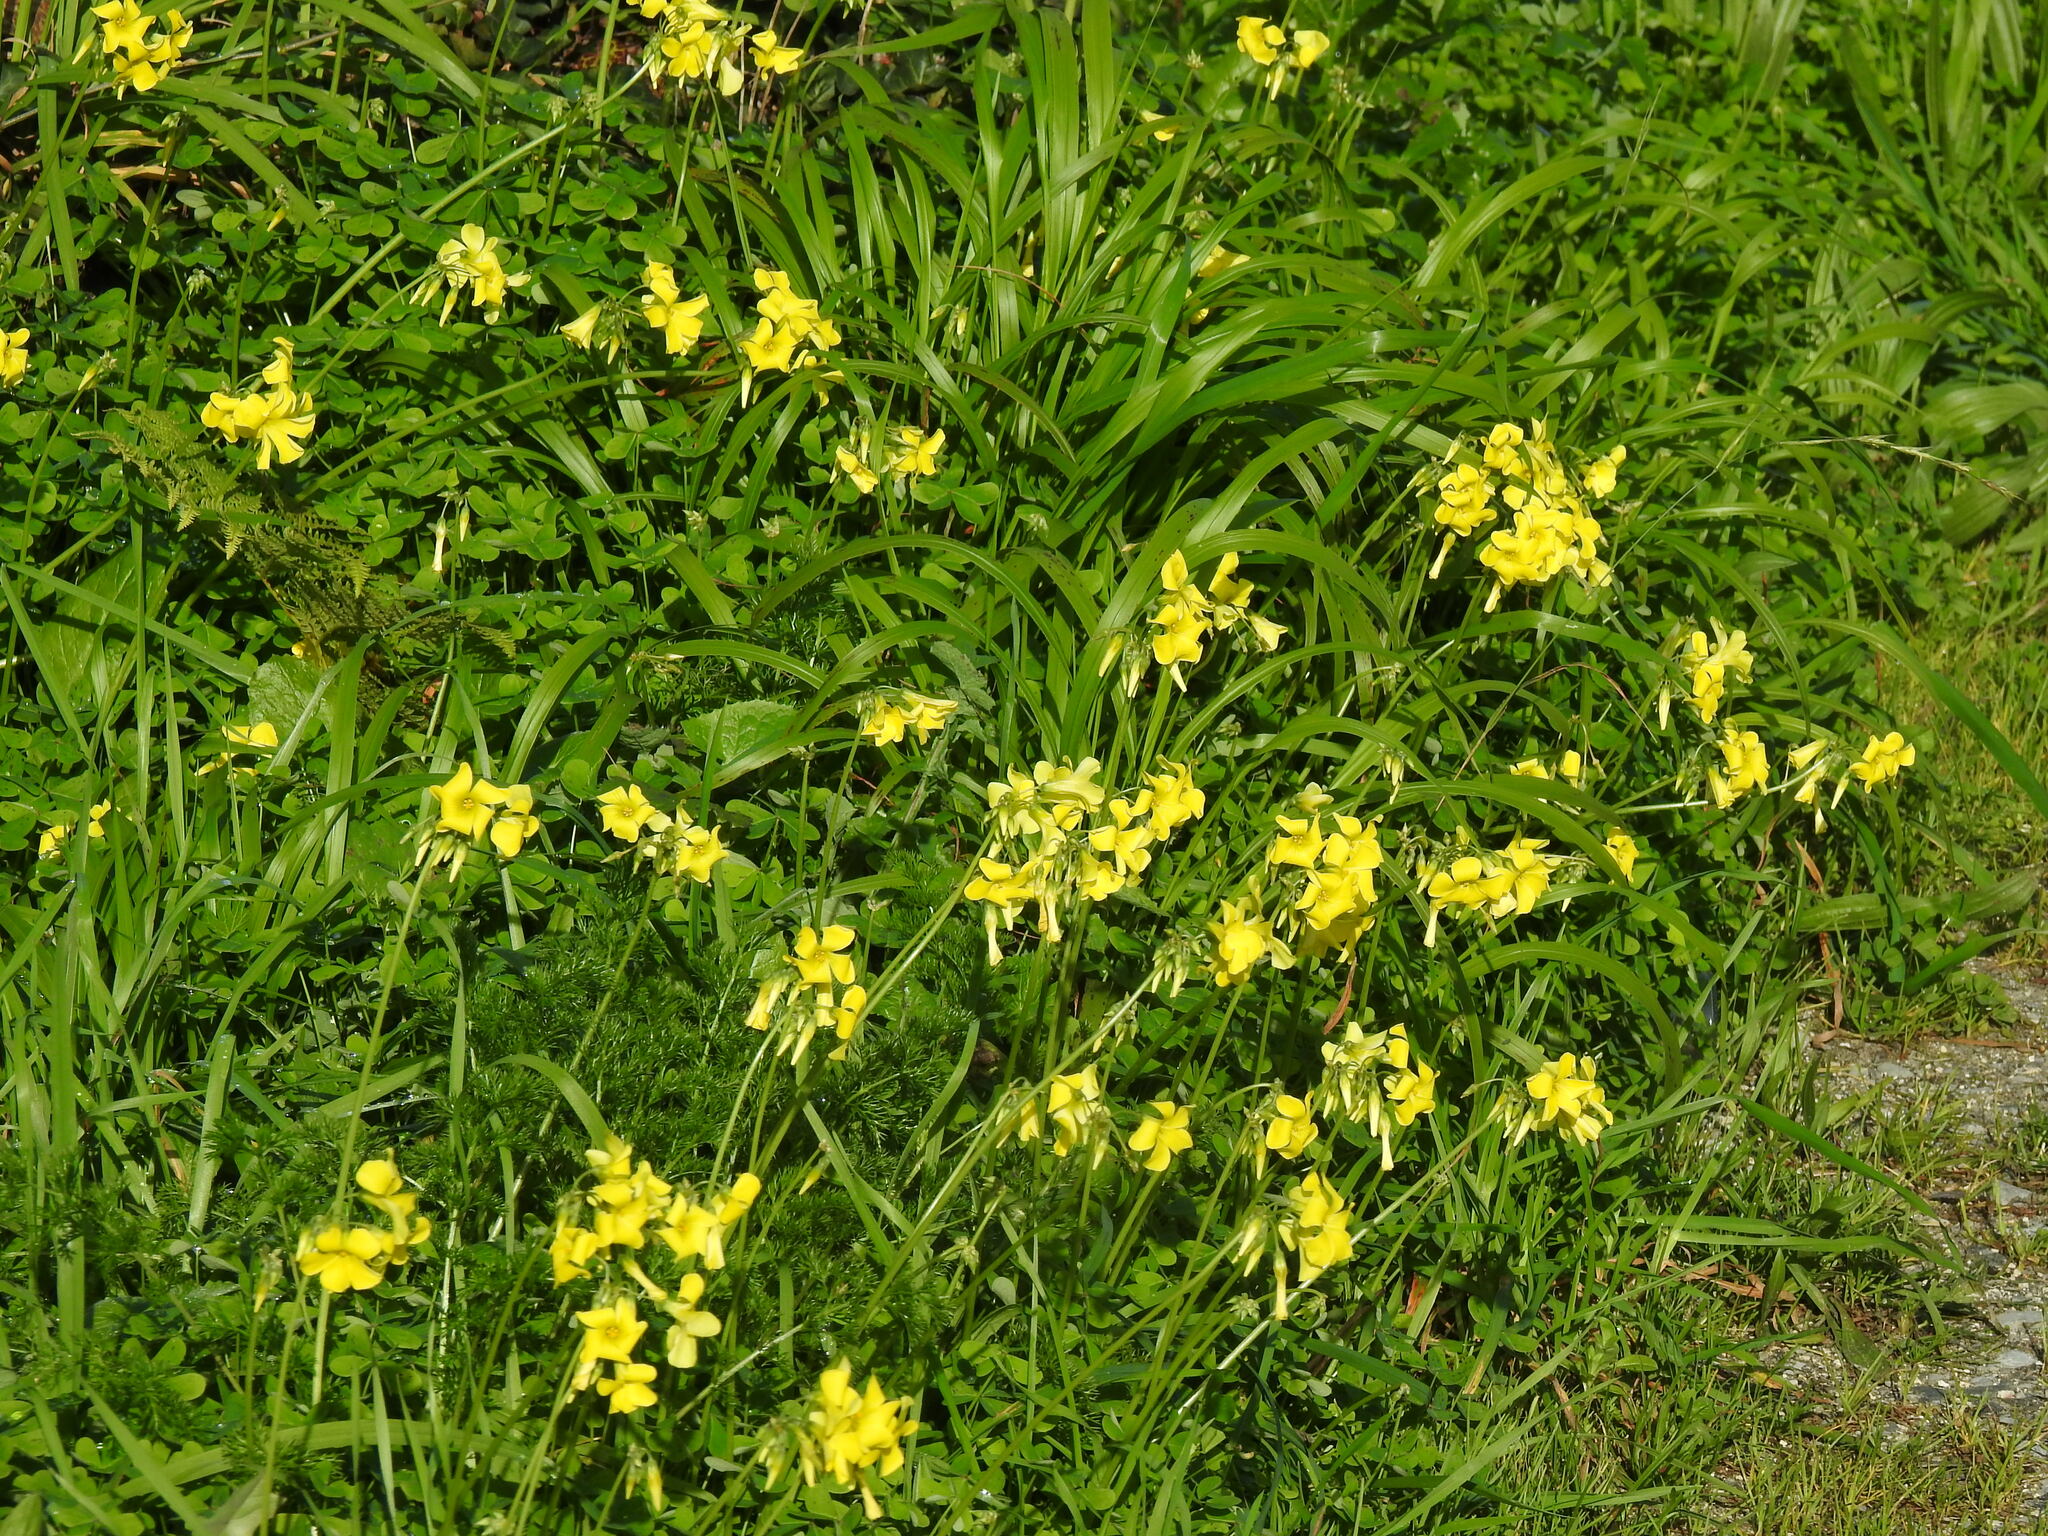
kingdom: Plantae
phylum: Tracheophyta
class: Magnoliopsida
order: Oxalidales
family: Oxalidaceae
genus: Oxalis
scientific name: Oxalis pes-caprae
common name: Bermuda-buttercup
